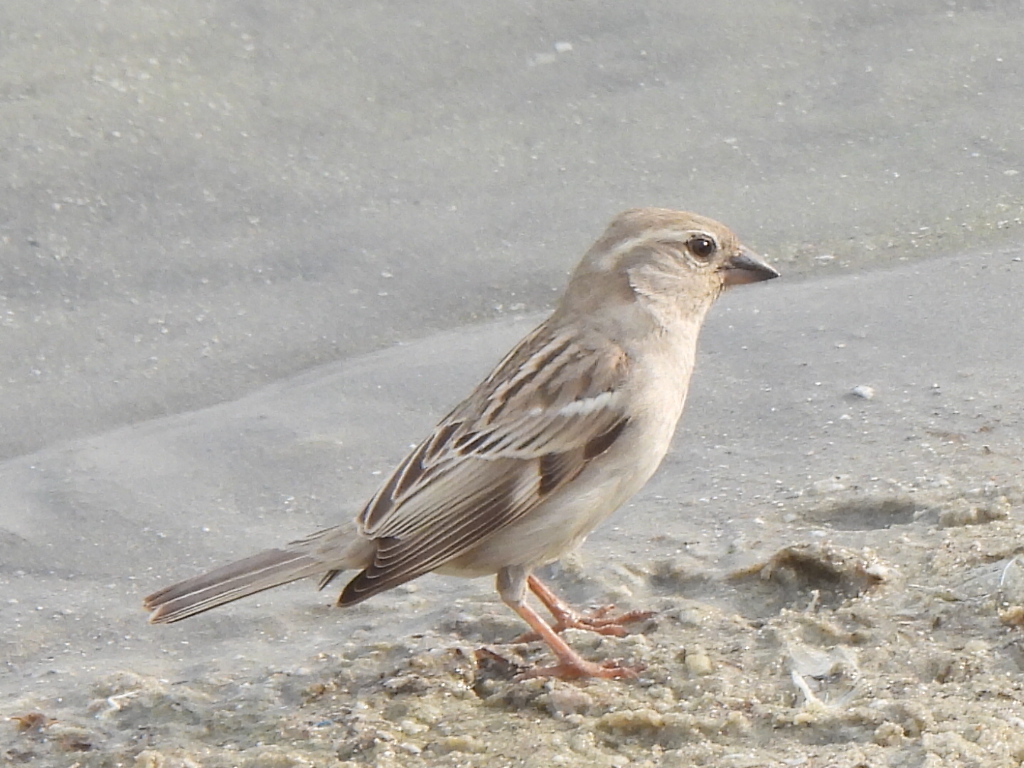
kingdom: Animalia
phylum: Chordata
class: Aves
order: Passeriformes
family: Passeridae
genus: Passer
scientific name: Passer domesticus
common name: House sparrow
